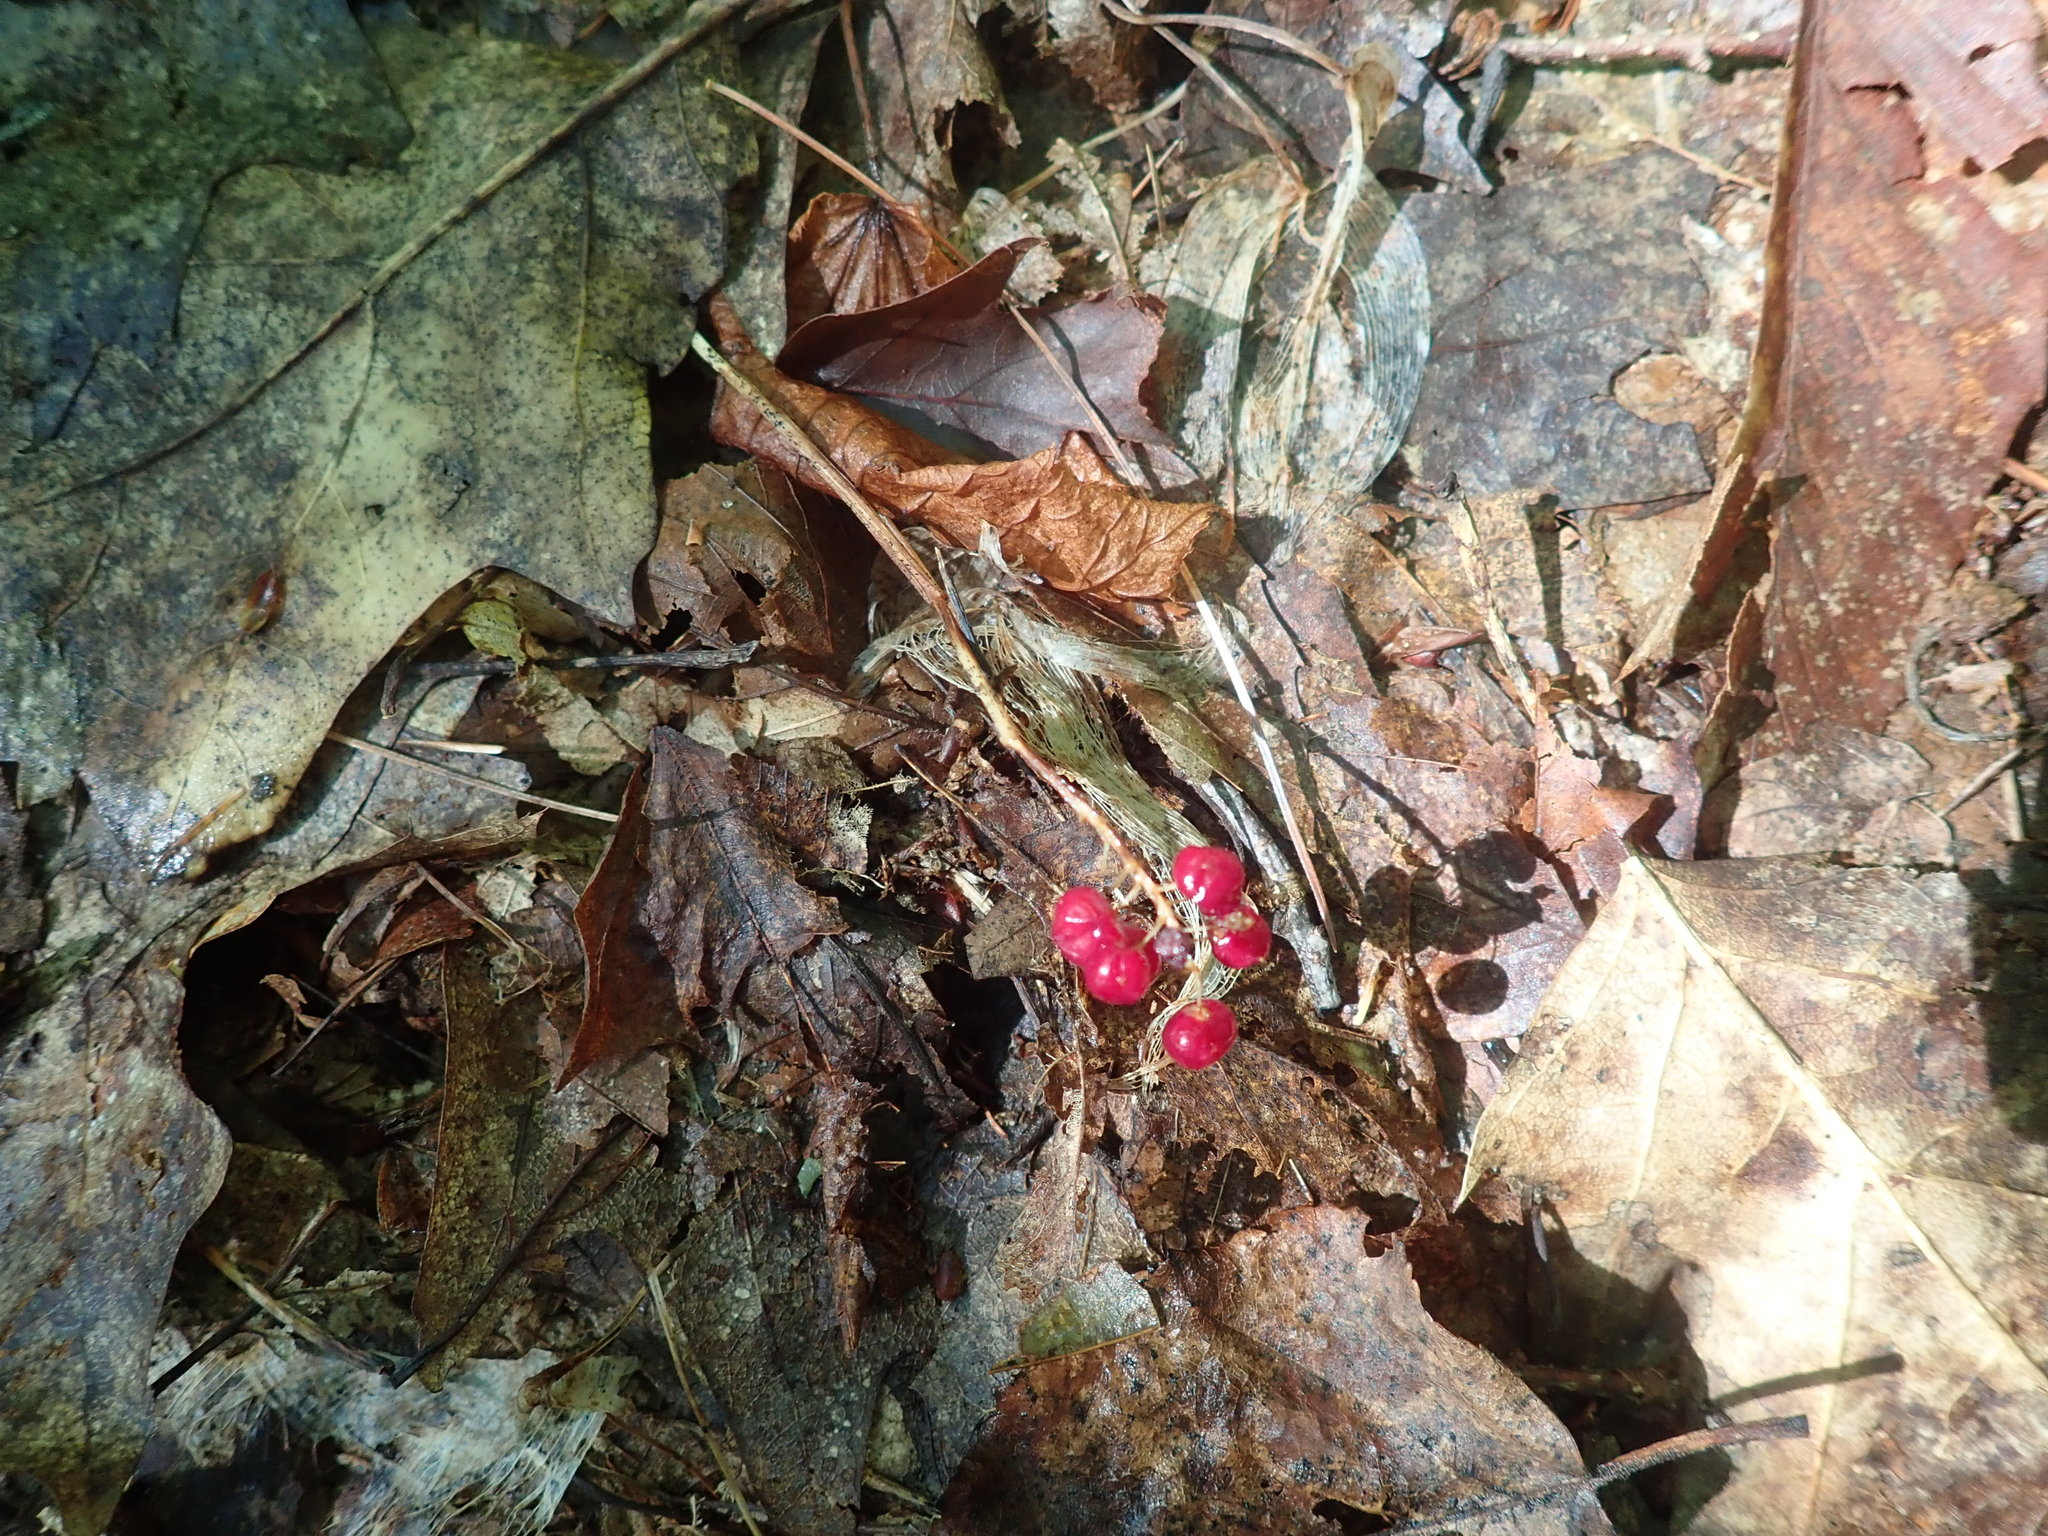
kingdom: Plantae
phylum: Tracheophyta
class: Liliopsida
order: Asparagales
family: Asparagaceae
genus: Maianthemum
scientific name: Maianthemum canadense
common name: False lily-of-the-valley
